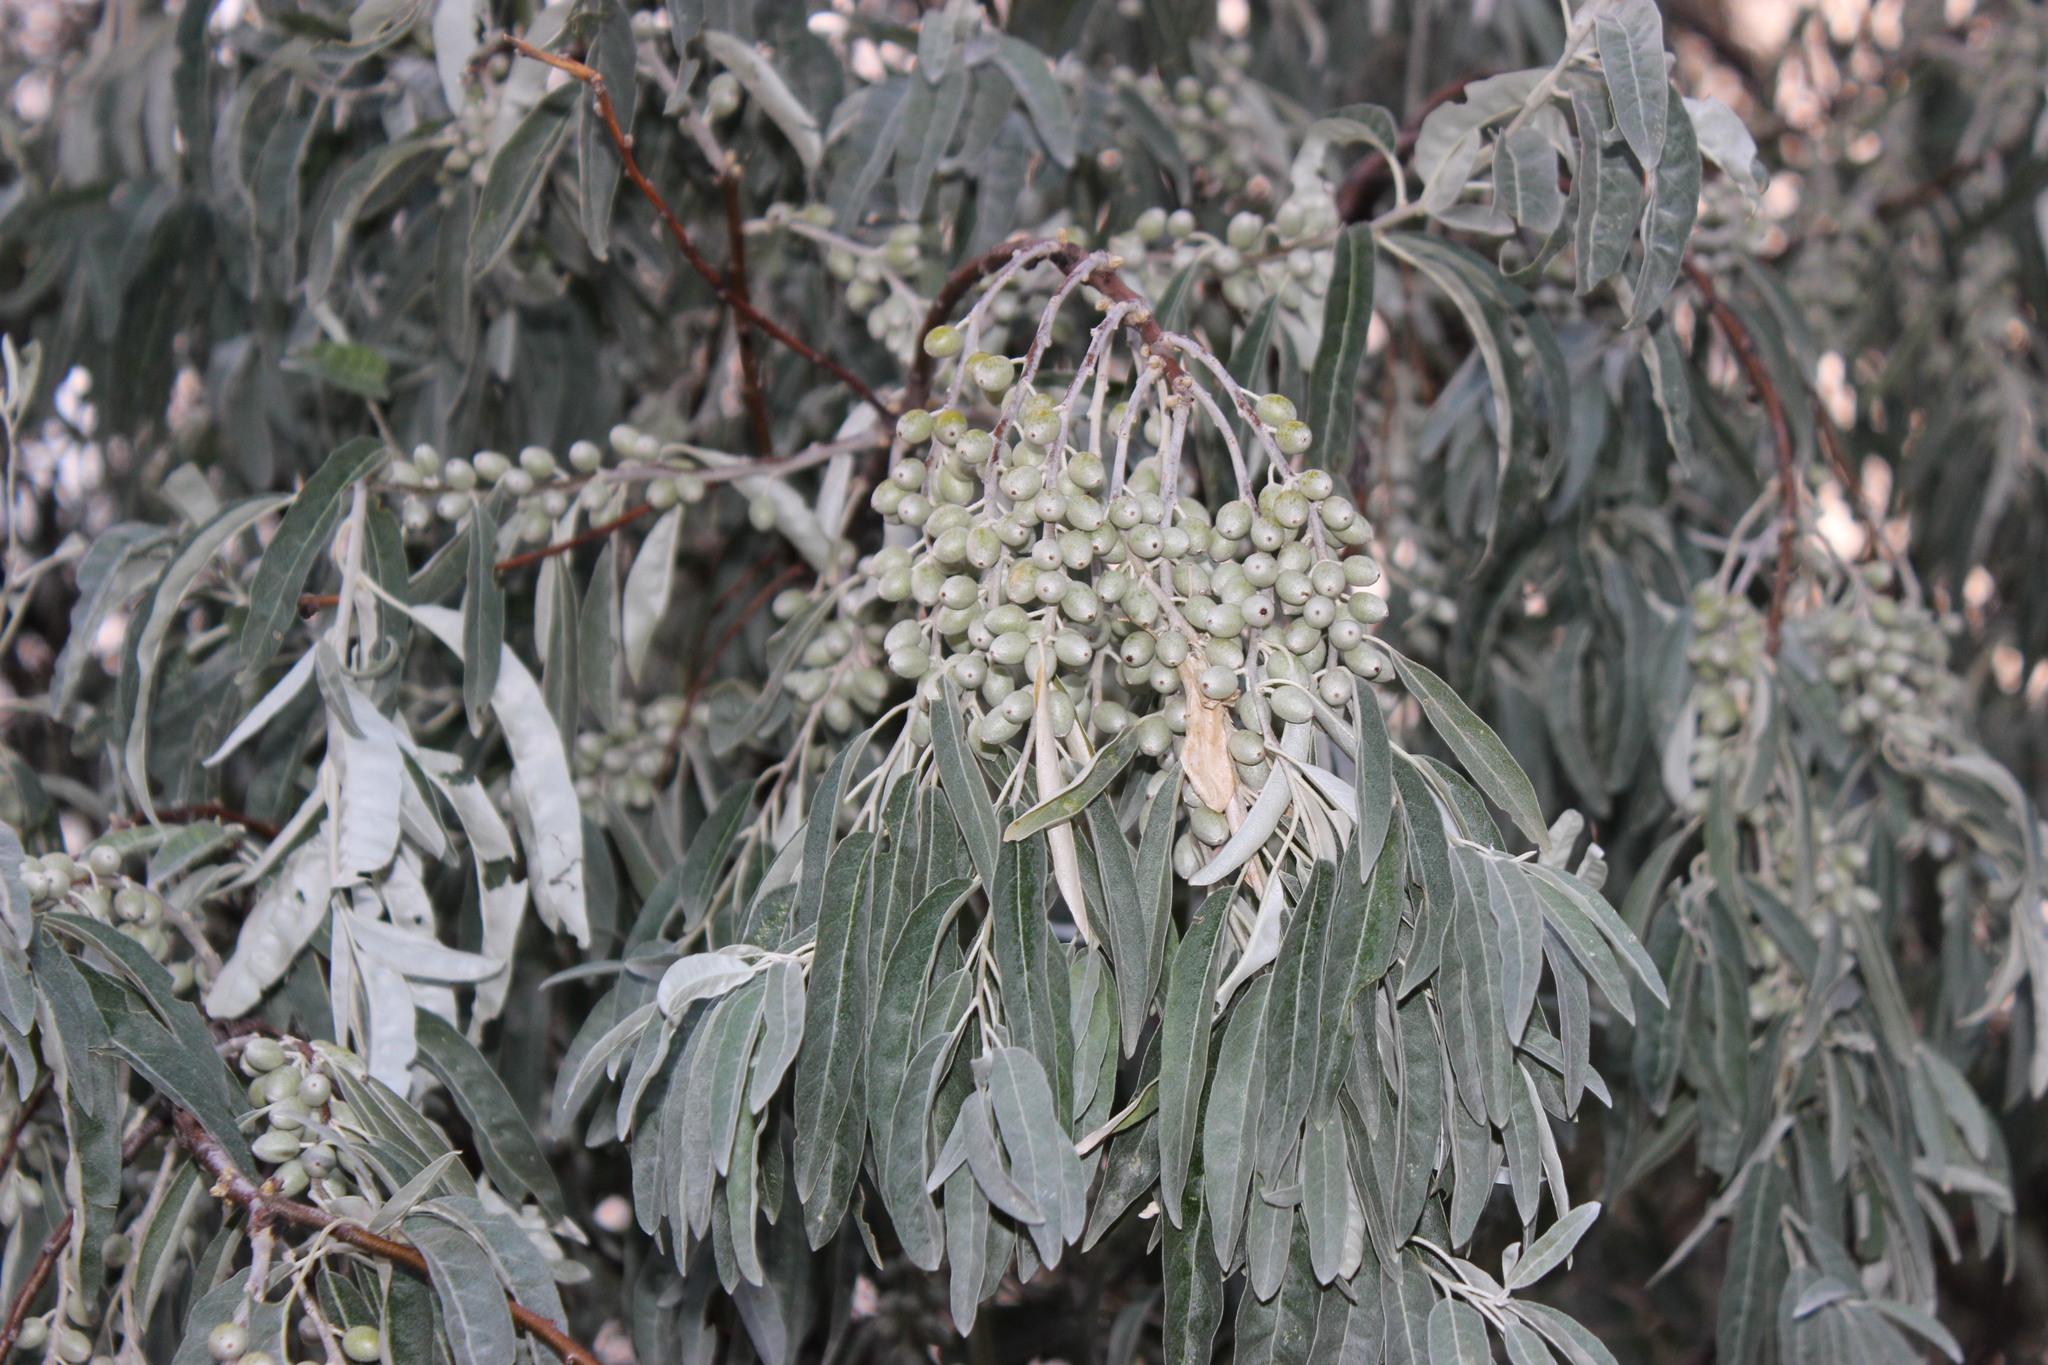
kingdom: Plantae
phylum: Tracheophyta
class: Magnoliopsida
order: Rosales
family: Elaeagnaceae
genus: Elaeagnus
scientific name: Elaeagnus angustifolia
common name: Russian olive
